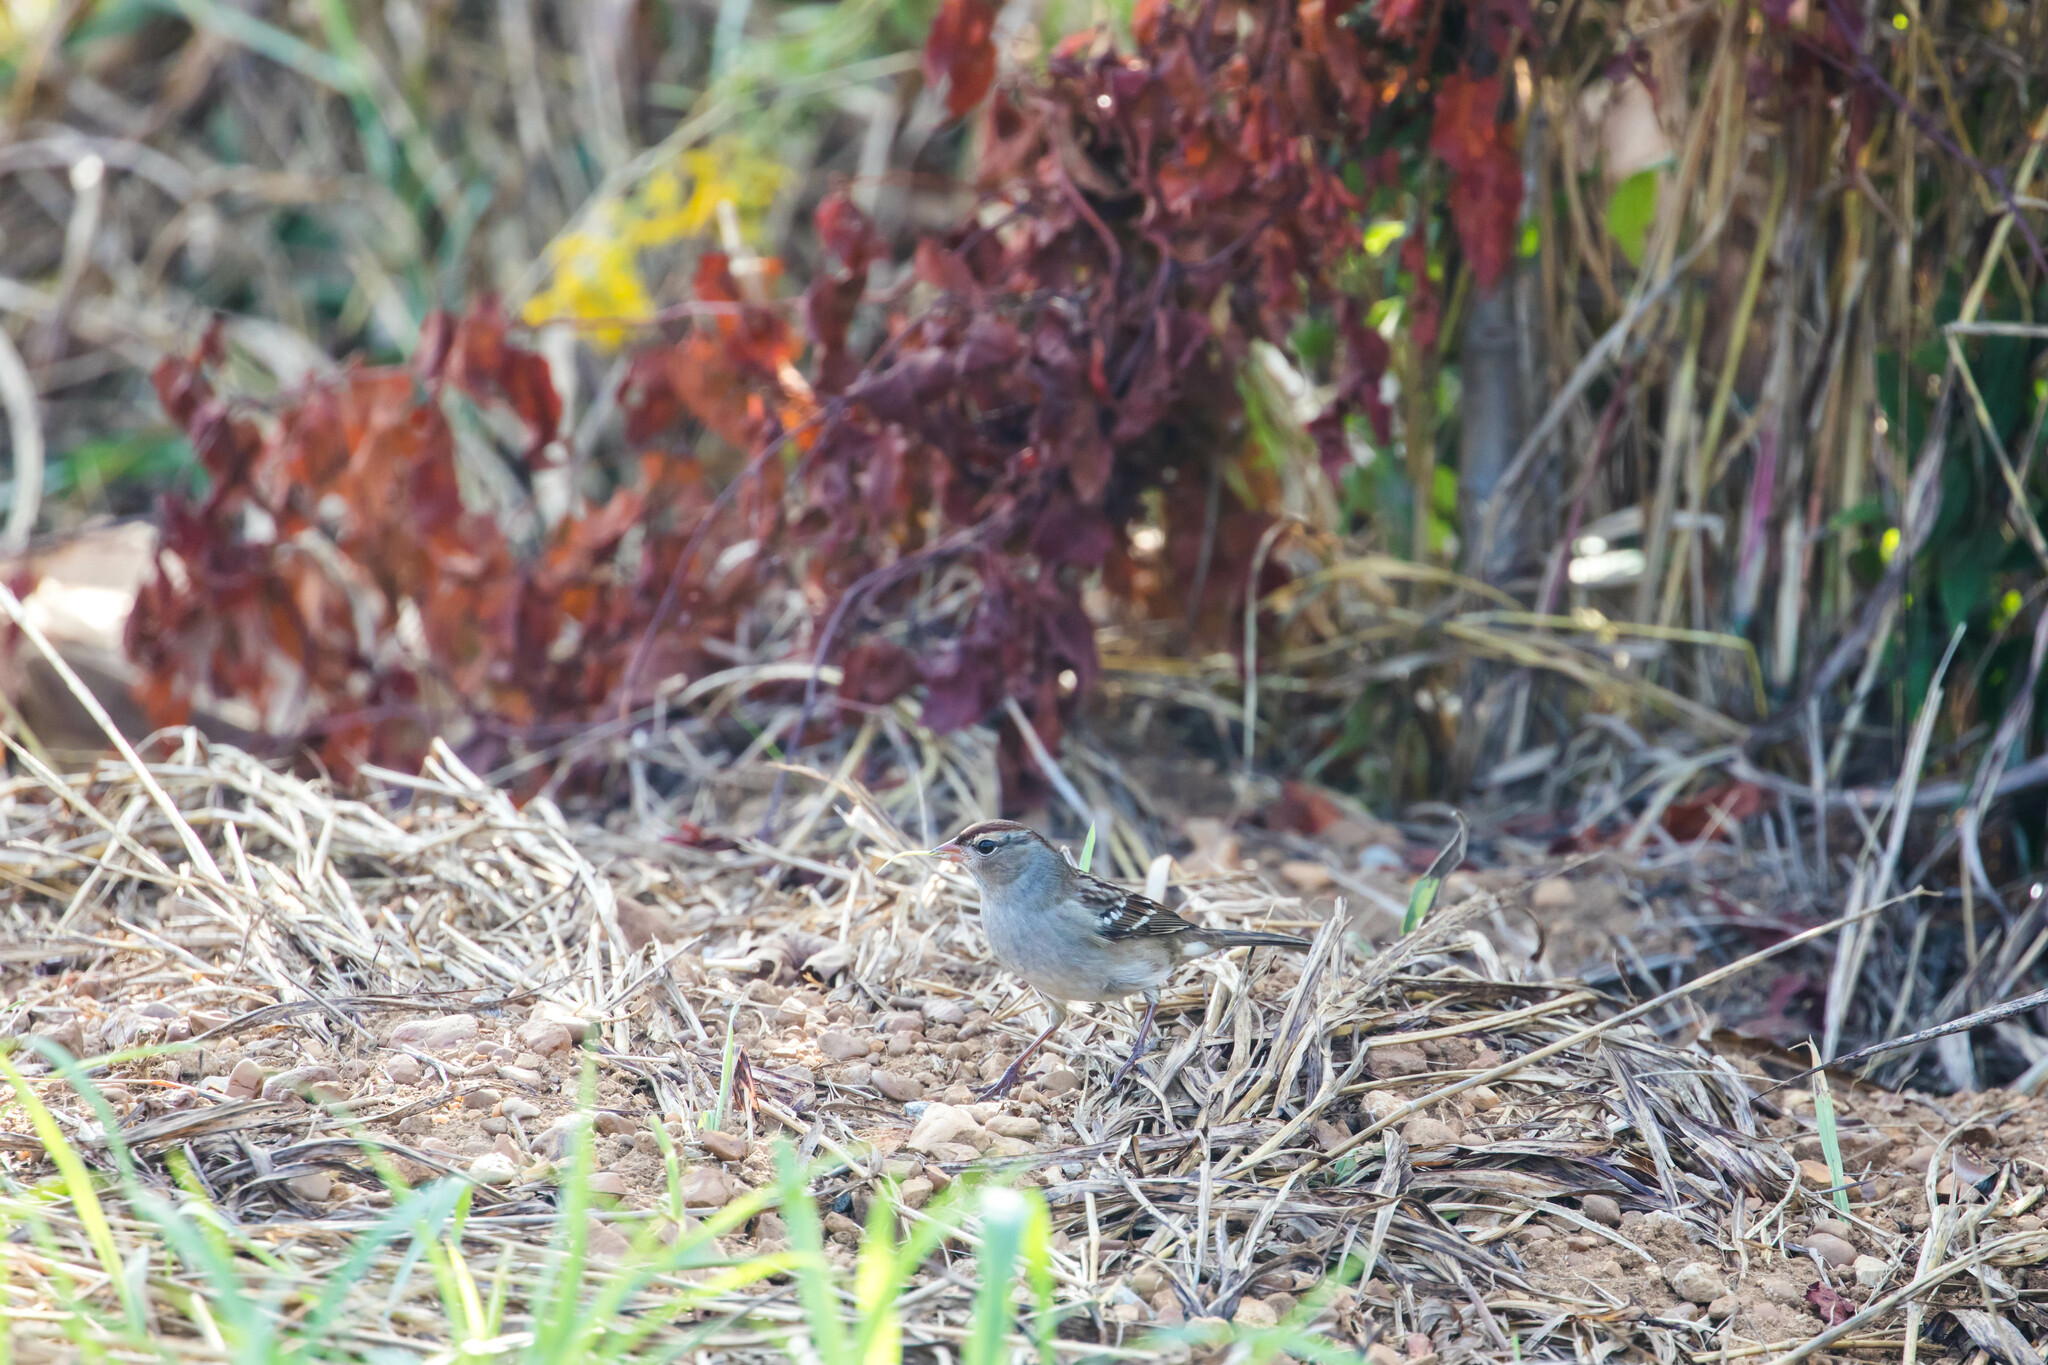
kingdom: Animalia
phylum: Chordata
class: Aves
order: Passeriformes
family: Passerellidae
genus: Zonotrichia
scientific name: Zonotrichia leucophrys
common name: White-crowned sparrow
